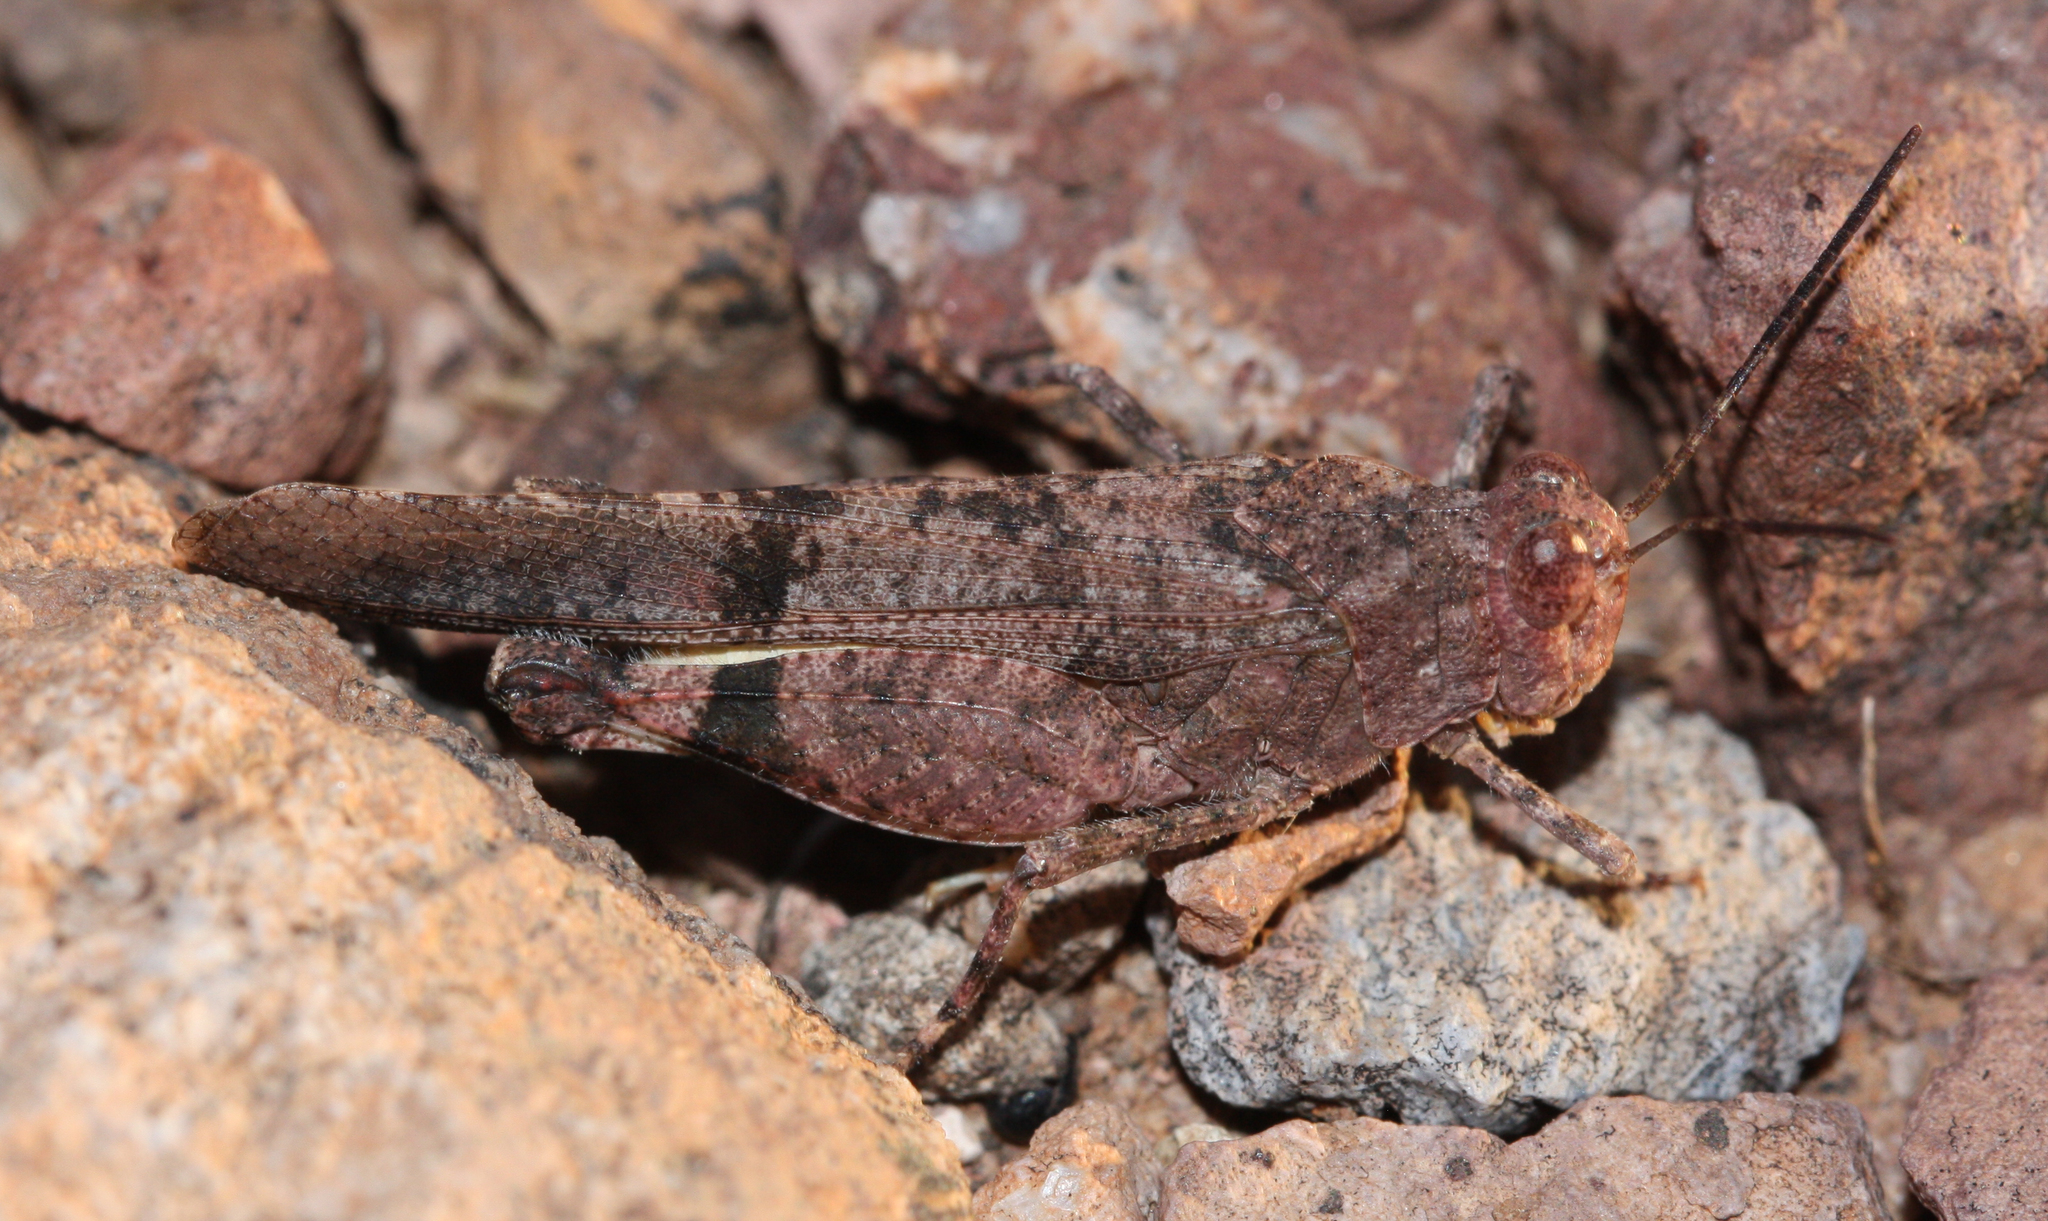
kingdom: Animalia
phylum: Arthropoda
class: Insecta
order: Orthoptera
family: Acrididae
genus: Lactista
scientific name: Lactista azteca
